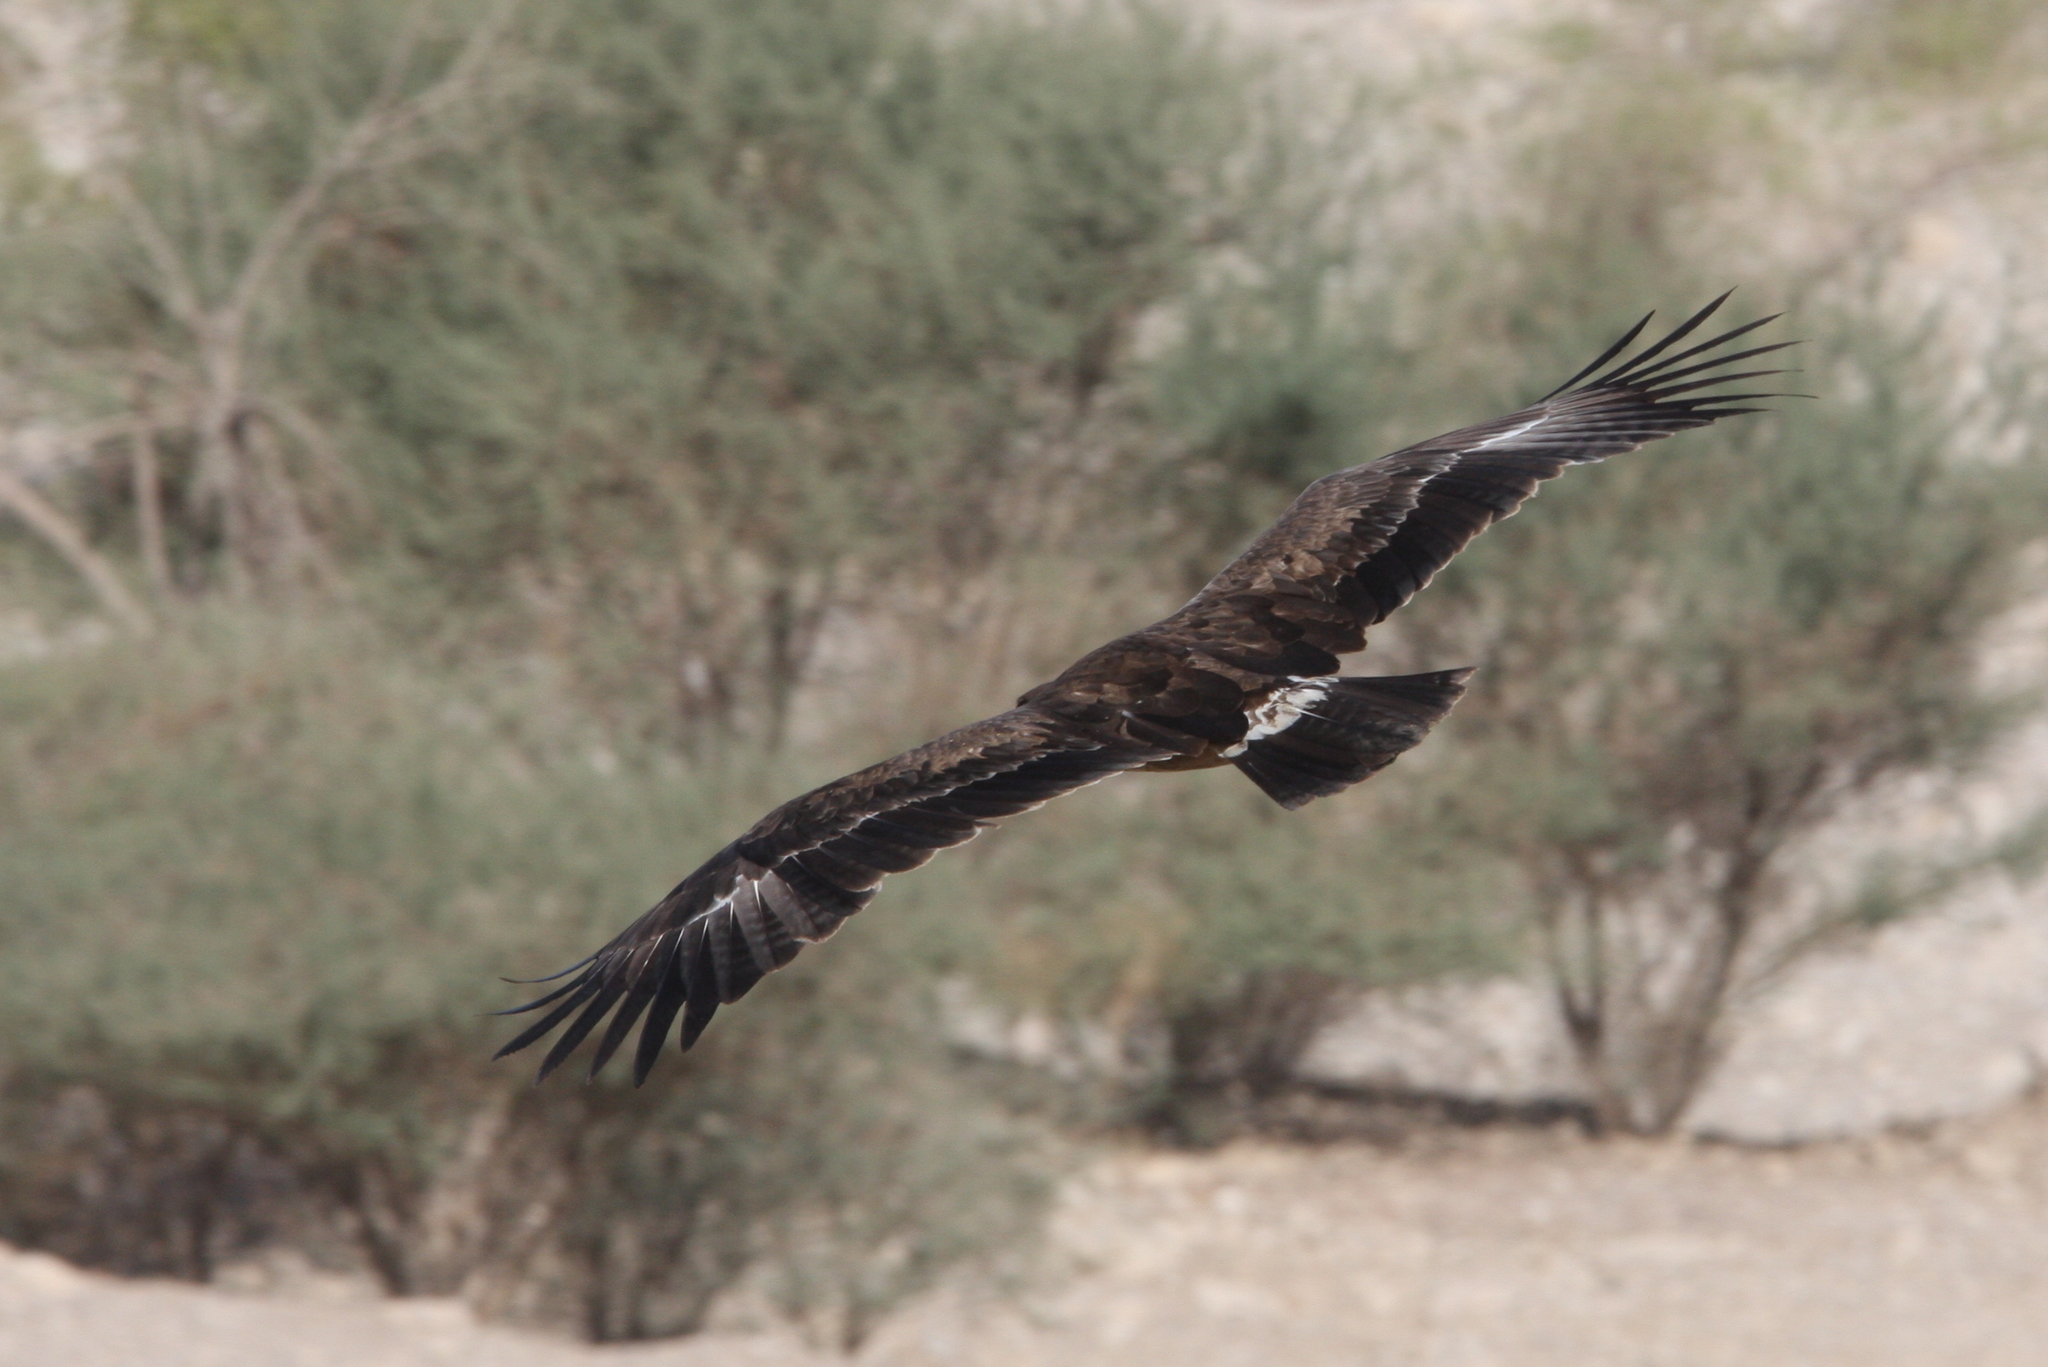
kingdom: Animalia
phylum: Chordata
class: Aves
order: Accipitriformes
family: Accipitridae
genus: Aquila
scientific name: Aquila nipalensis
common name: Steppe eagle
